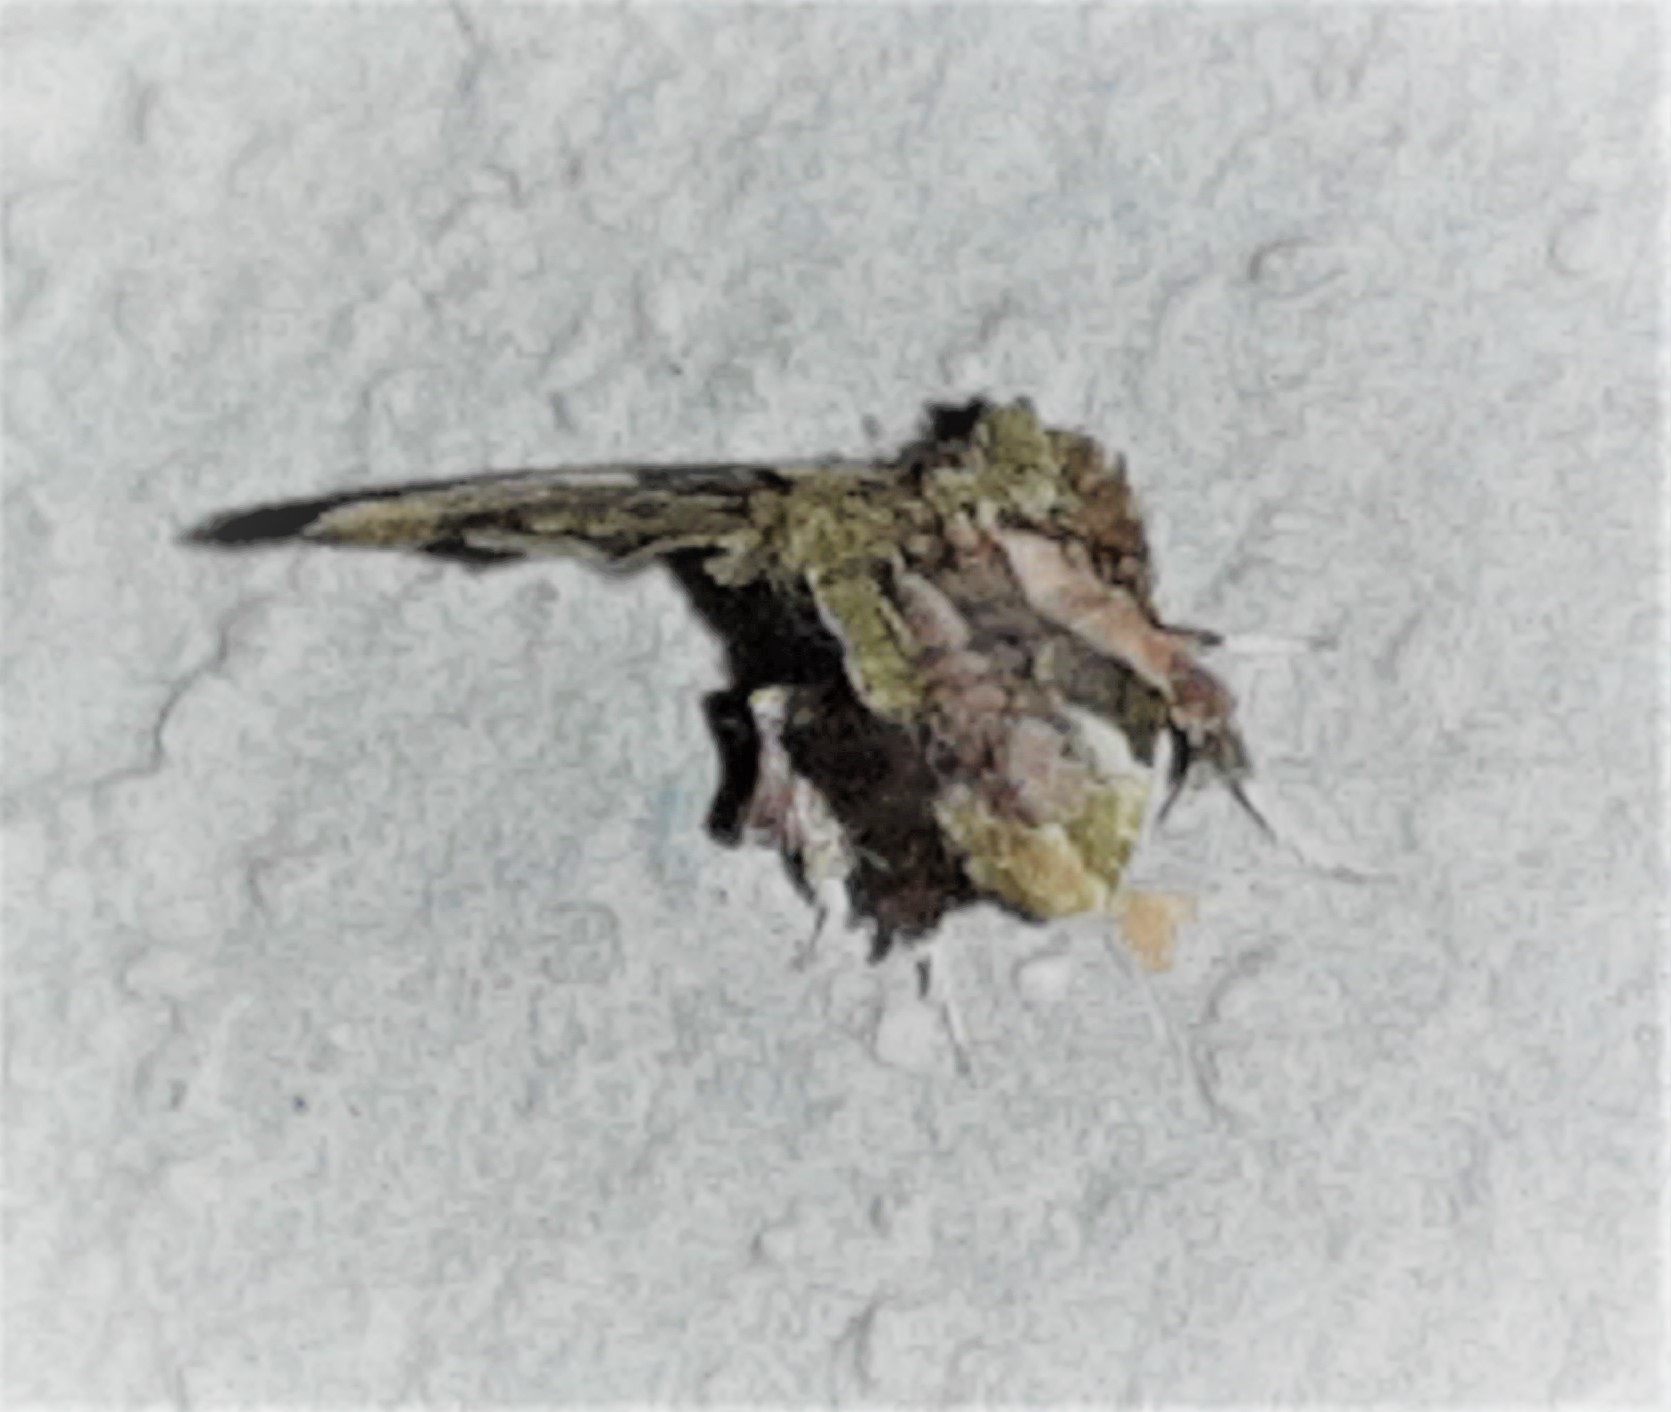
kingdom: Animalia
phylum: Arthropoda
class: Insecta
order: Lepidoptera
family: Noctuidae
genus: Erastroides
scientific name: Erastroides emarginata
